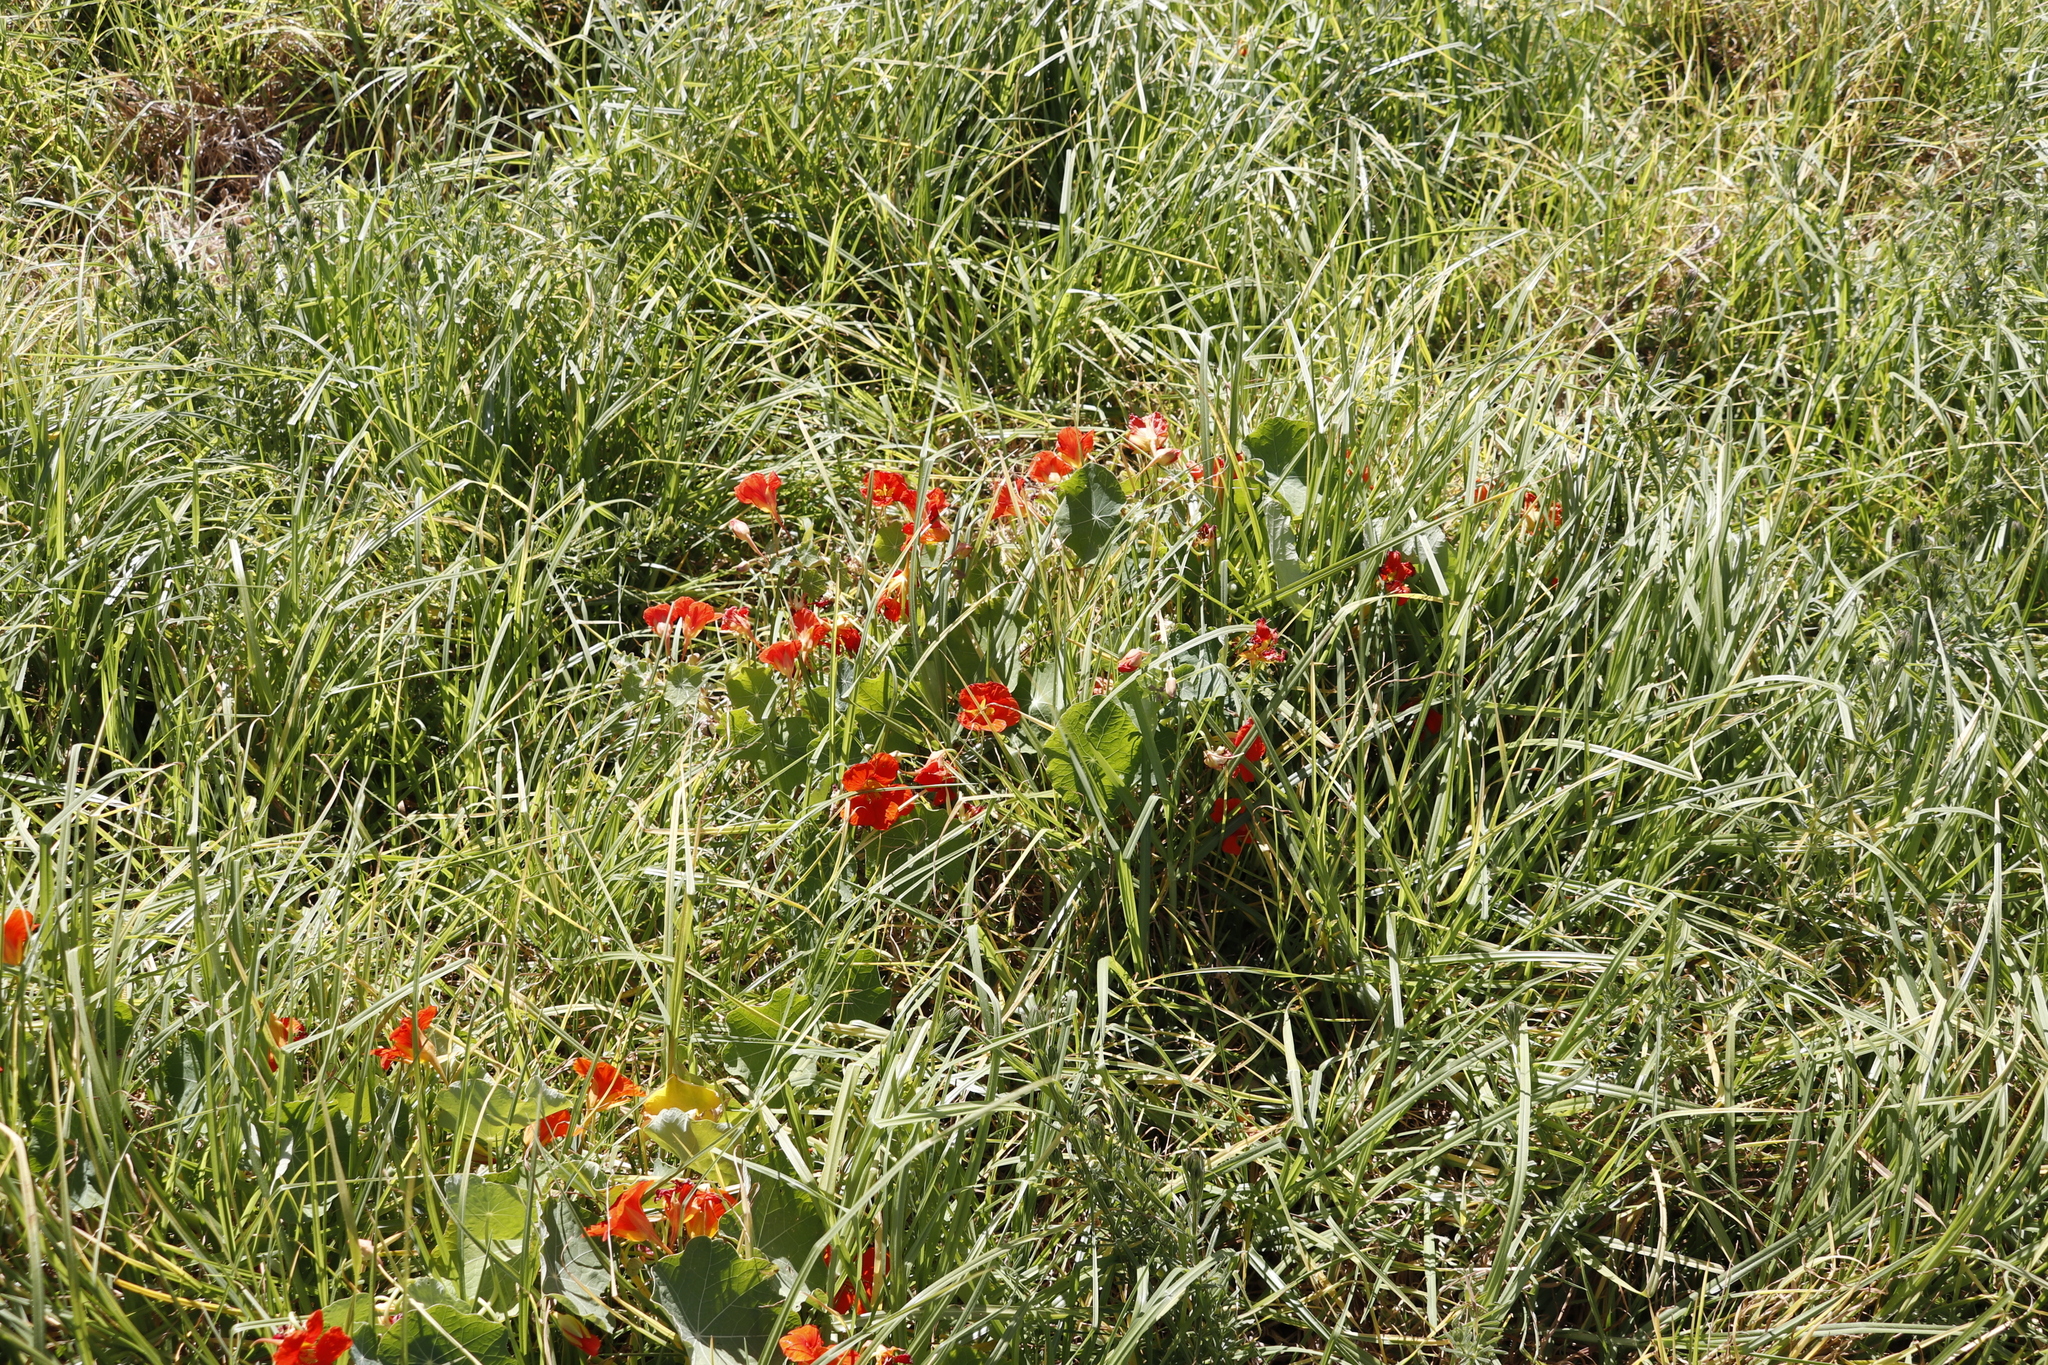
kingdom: Plantae
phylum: Tracheophyta
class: Magnoliopsida
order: Brassicales
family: Tropaeolaceae
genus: Tropaeolum
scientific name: Tropaeolum majus
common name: Nasturtium
